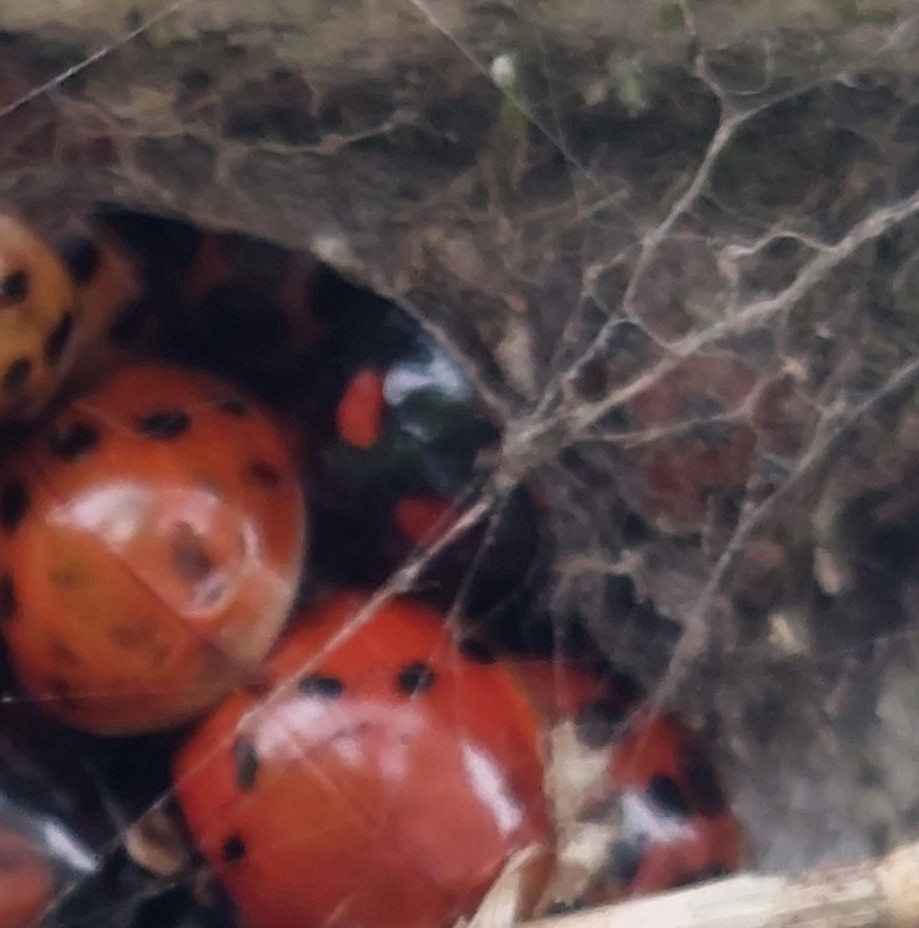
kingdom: Animalia
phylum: Arthropoda
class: Insecta
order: Coleoptera
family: Coccinellidae
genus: Harmonia
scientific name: Harmonia axyridis
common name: Harlequin ladybird
